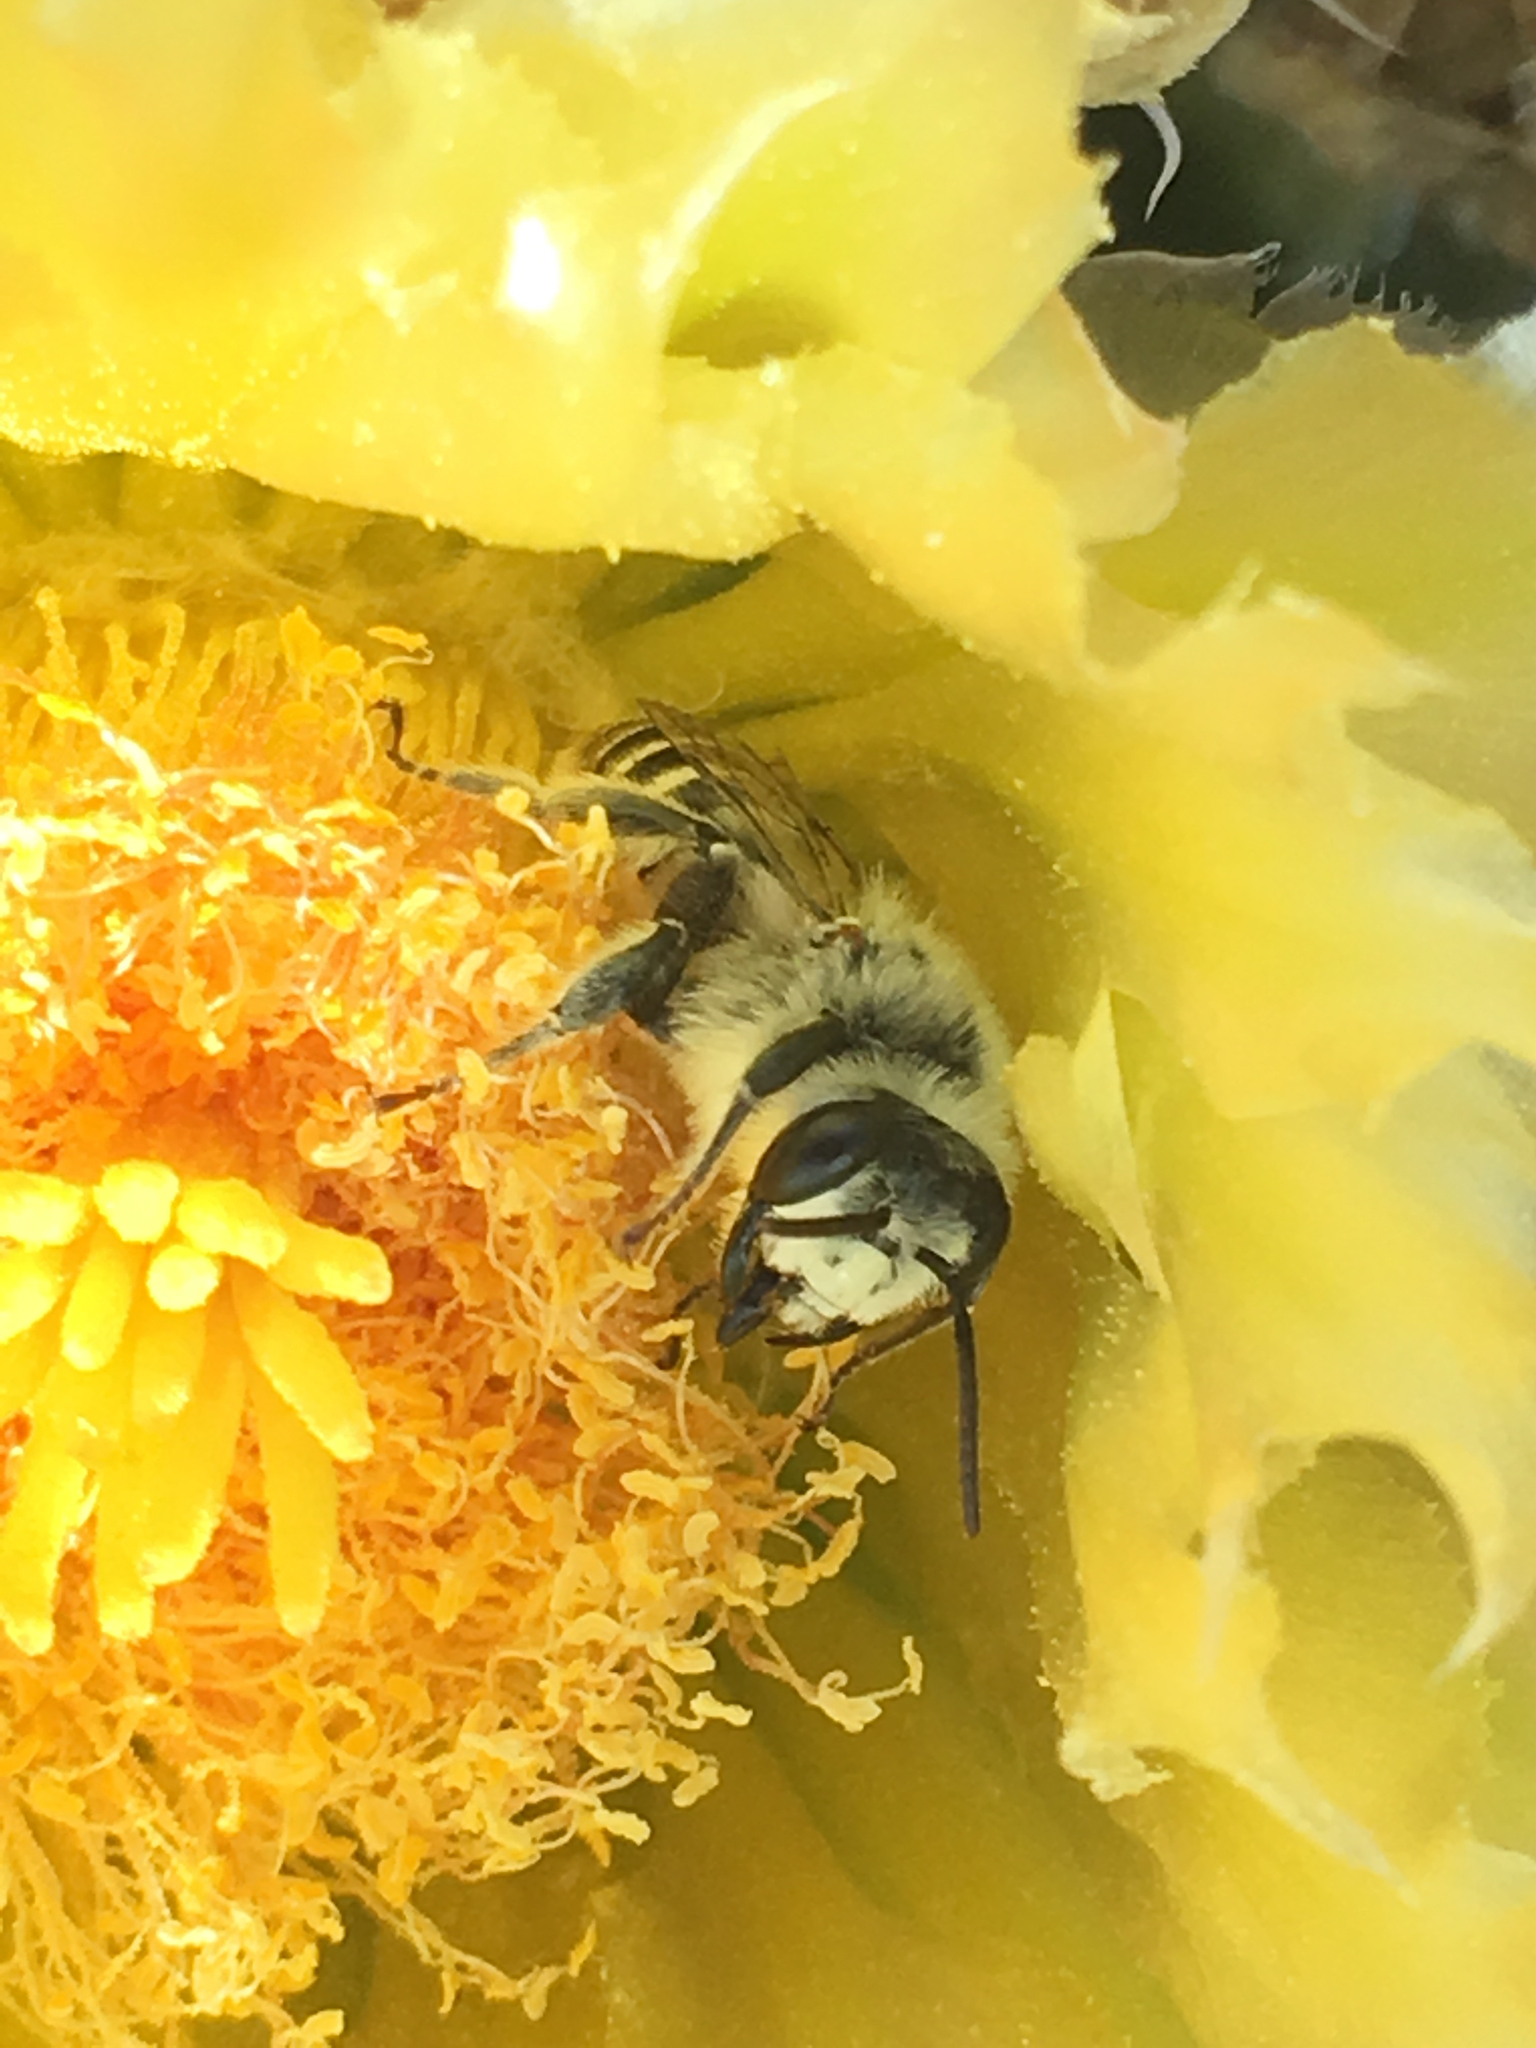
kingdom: Animalia
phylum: Arthropoda
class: Insecta
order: Hymenoptera
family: Andrenidae
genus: Megandrena
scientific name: Megandrena enceliae
